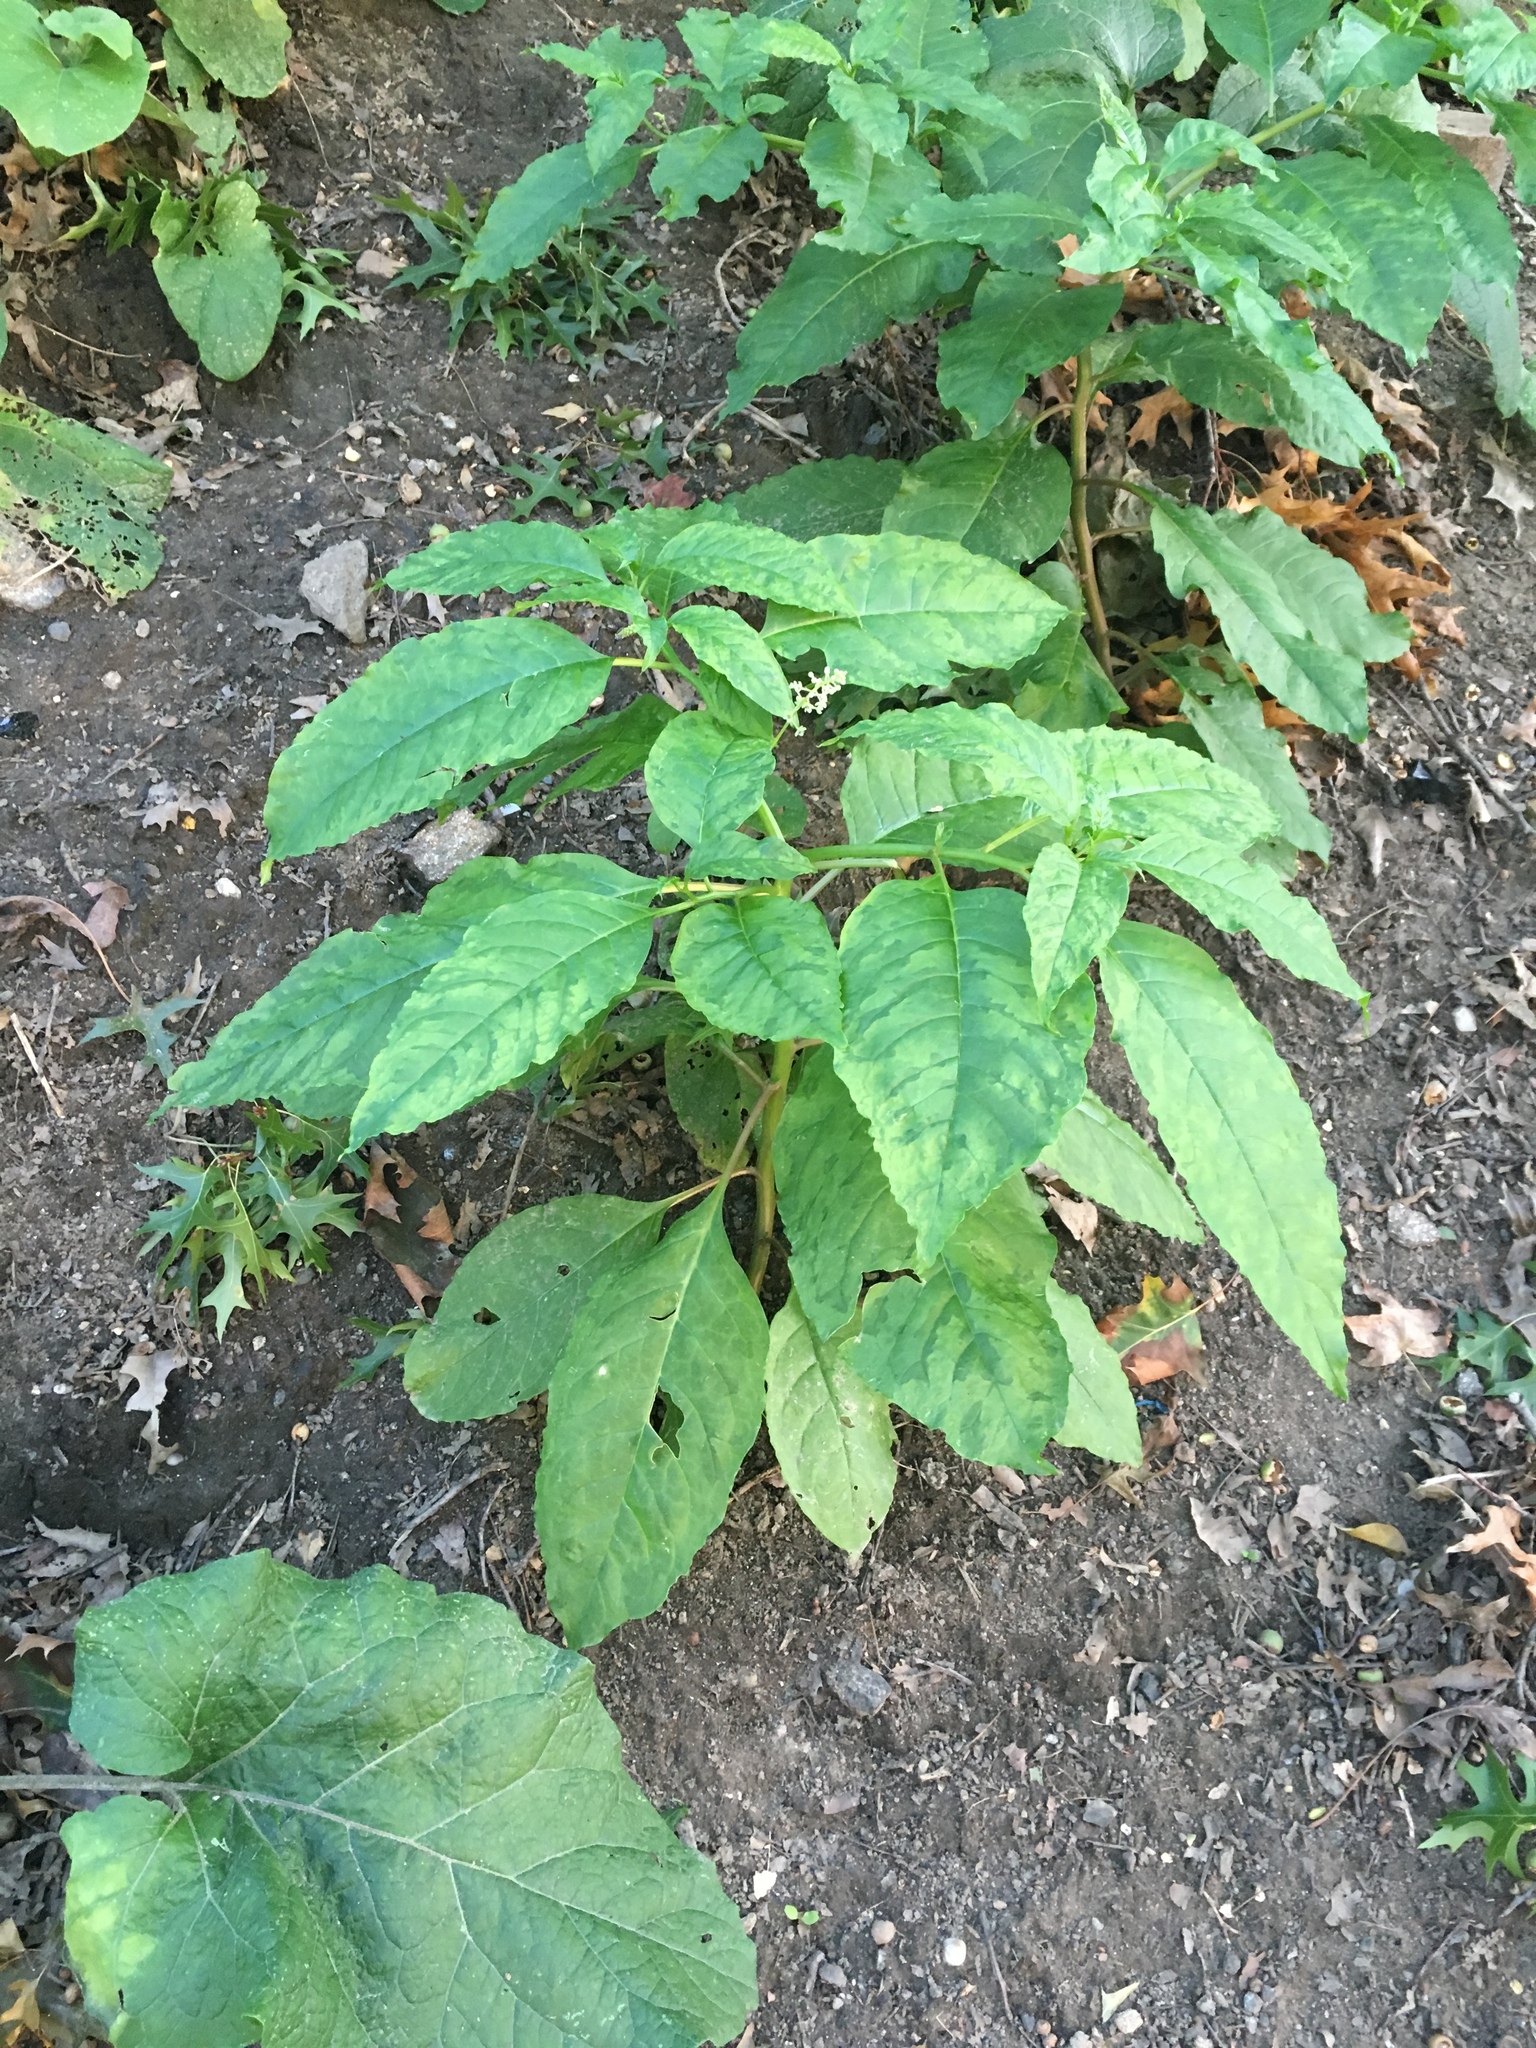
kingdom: Plantae
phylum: Tracheophyta
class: Magnoliopsida
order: Caryophyllales
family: Phytolaccaceae
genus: Phytolacca
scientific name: Phytolacca americana
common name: American pokeweed
